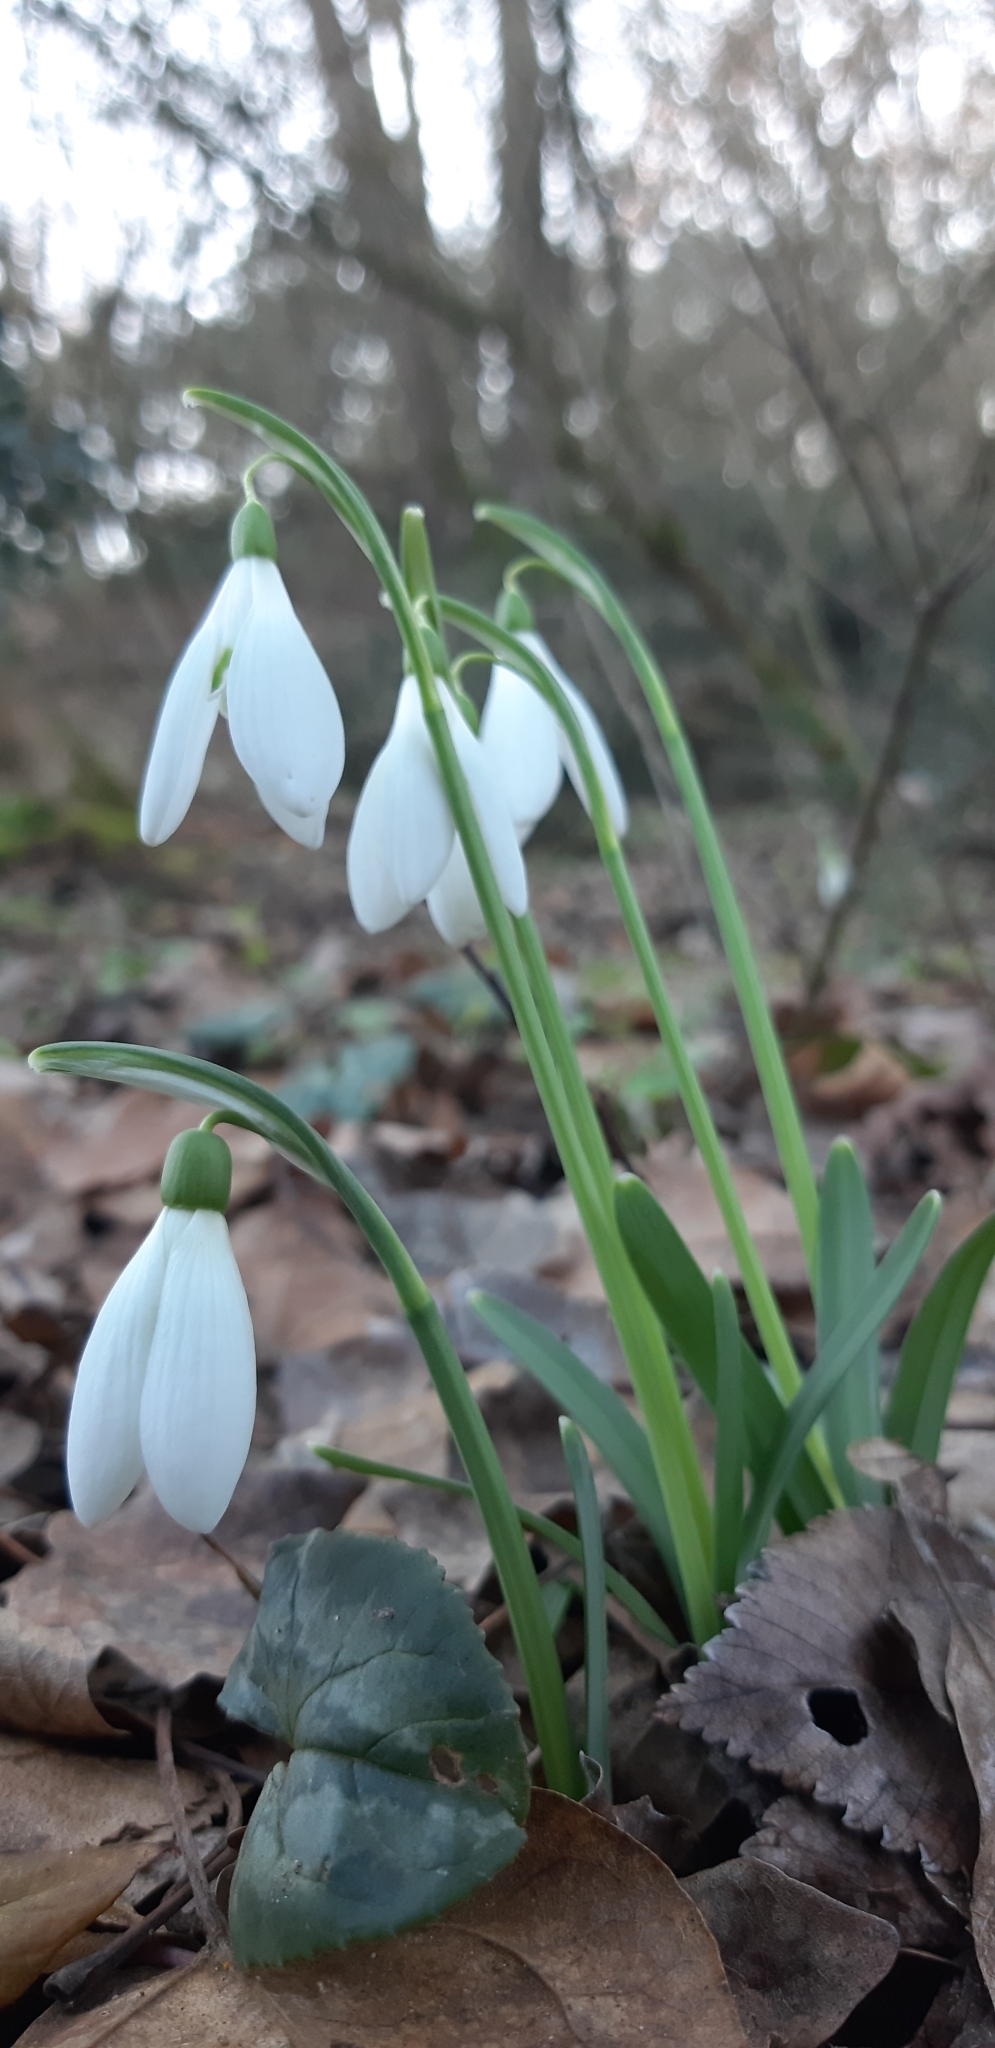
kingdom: Plantae
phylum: Tracheophyta
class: Liliopsida
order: Asparagales
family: Amaryllidaceae
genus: Galanthus
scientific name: Galanthus nivalis
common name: Snowdrop
